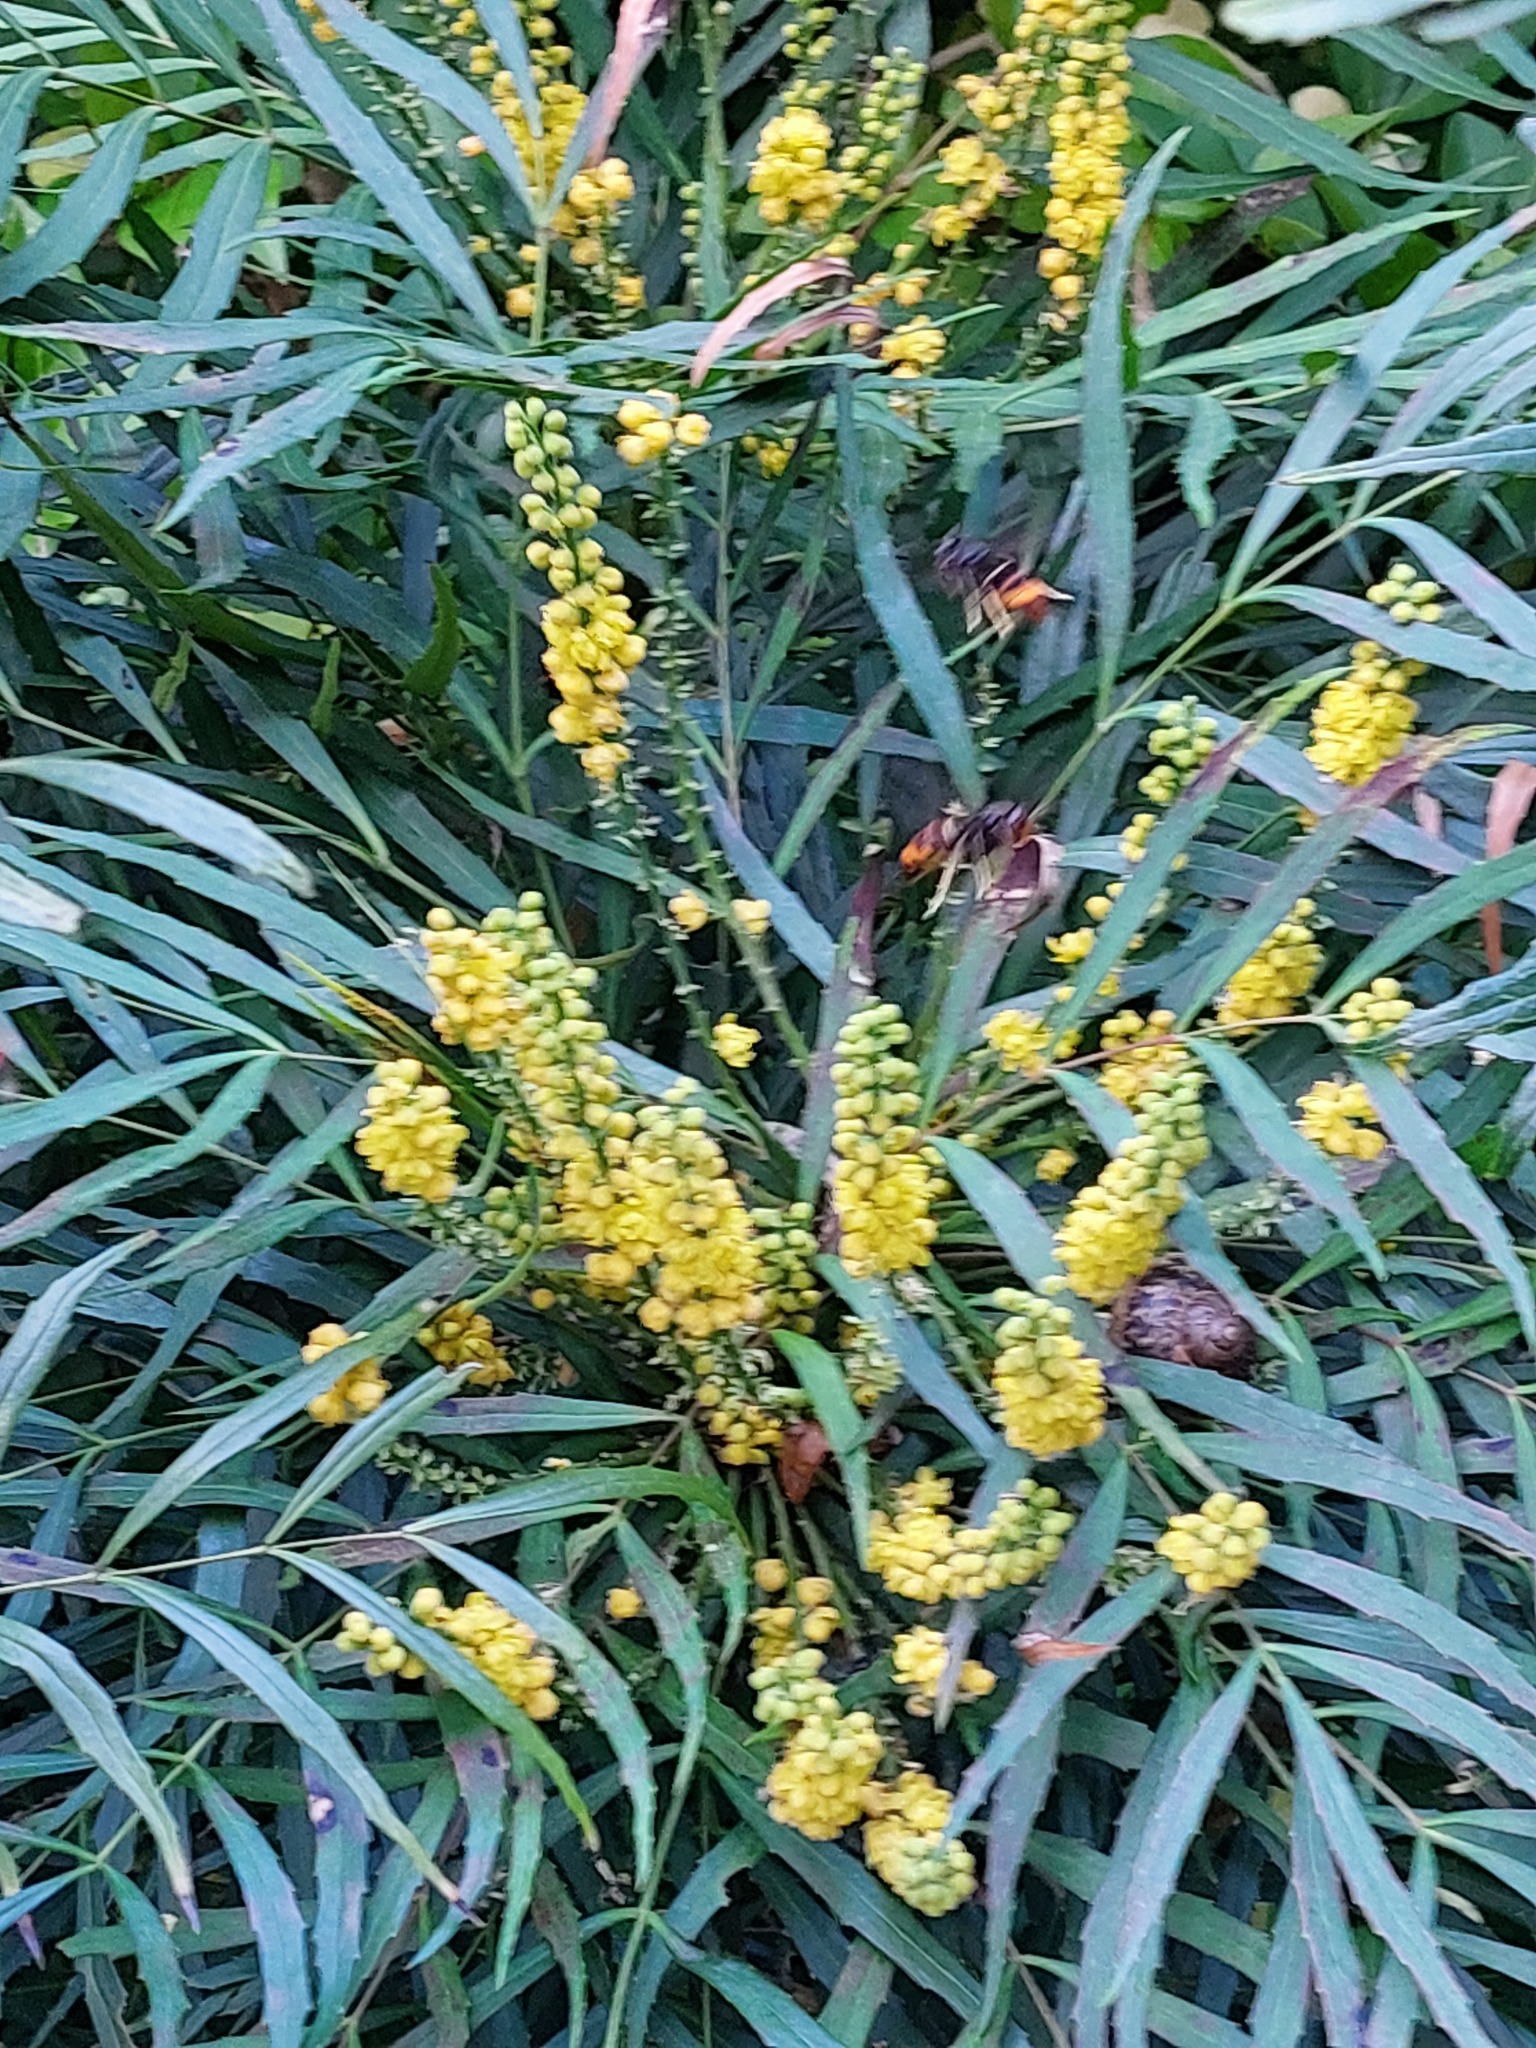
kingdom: Animalia
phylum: Arthropoda
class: Insecta
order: Hymenoptera
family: Vespidae
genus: Vespa
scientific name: Vespa velutina
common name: Asian hornet
